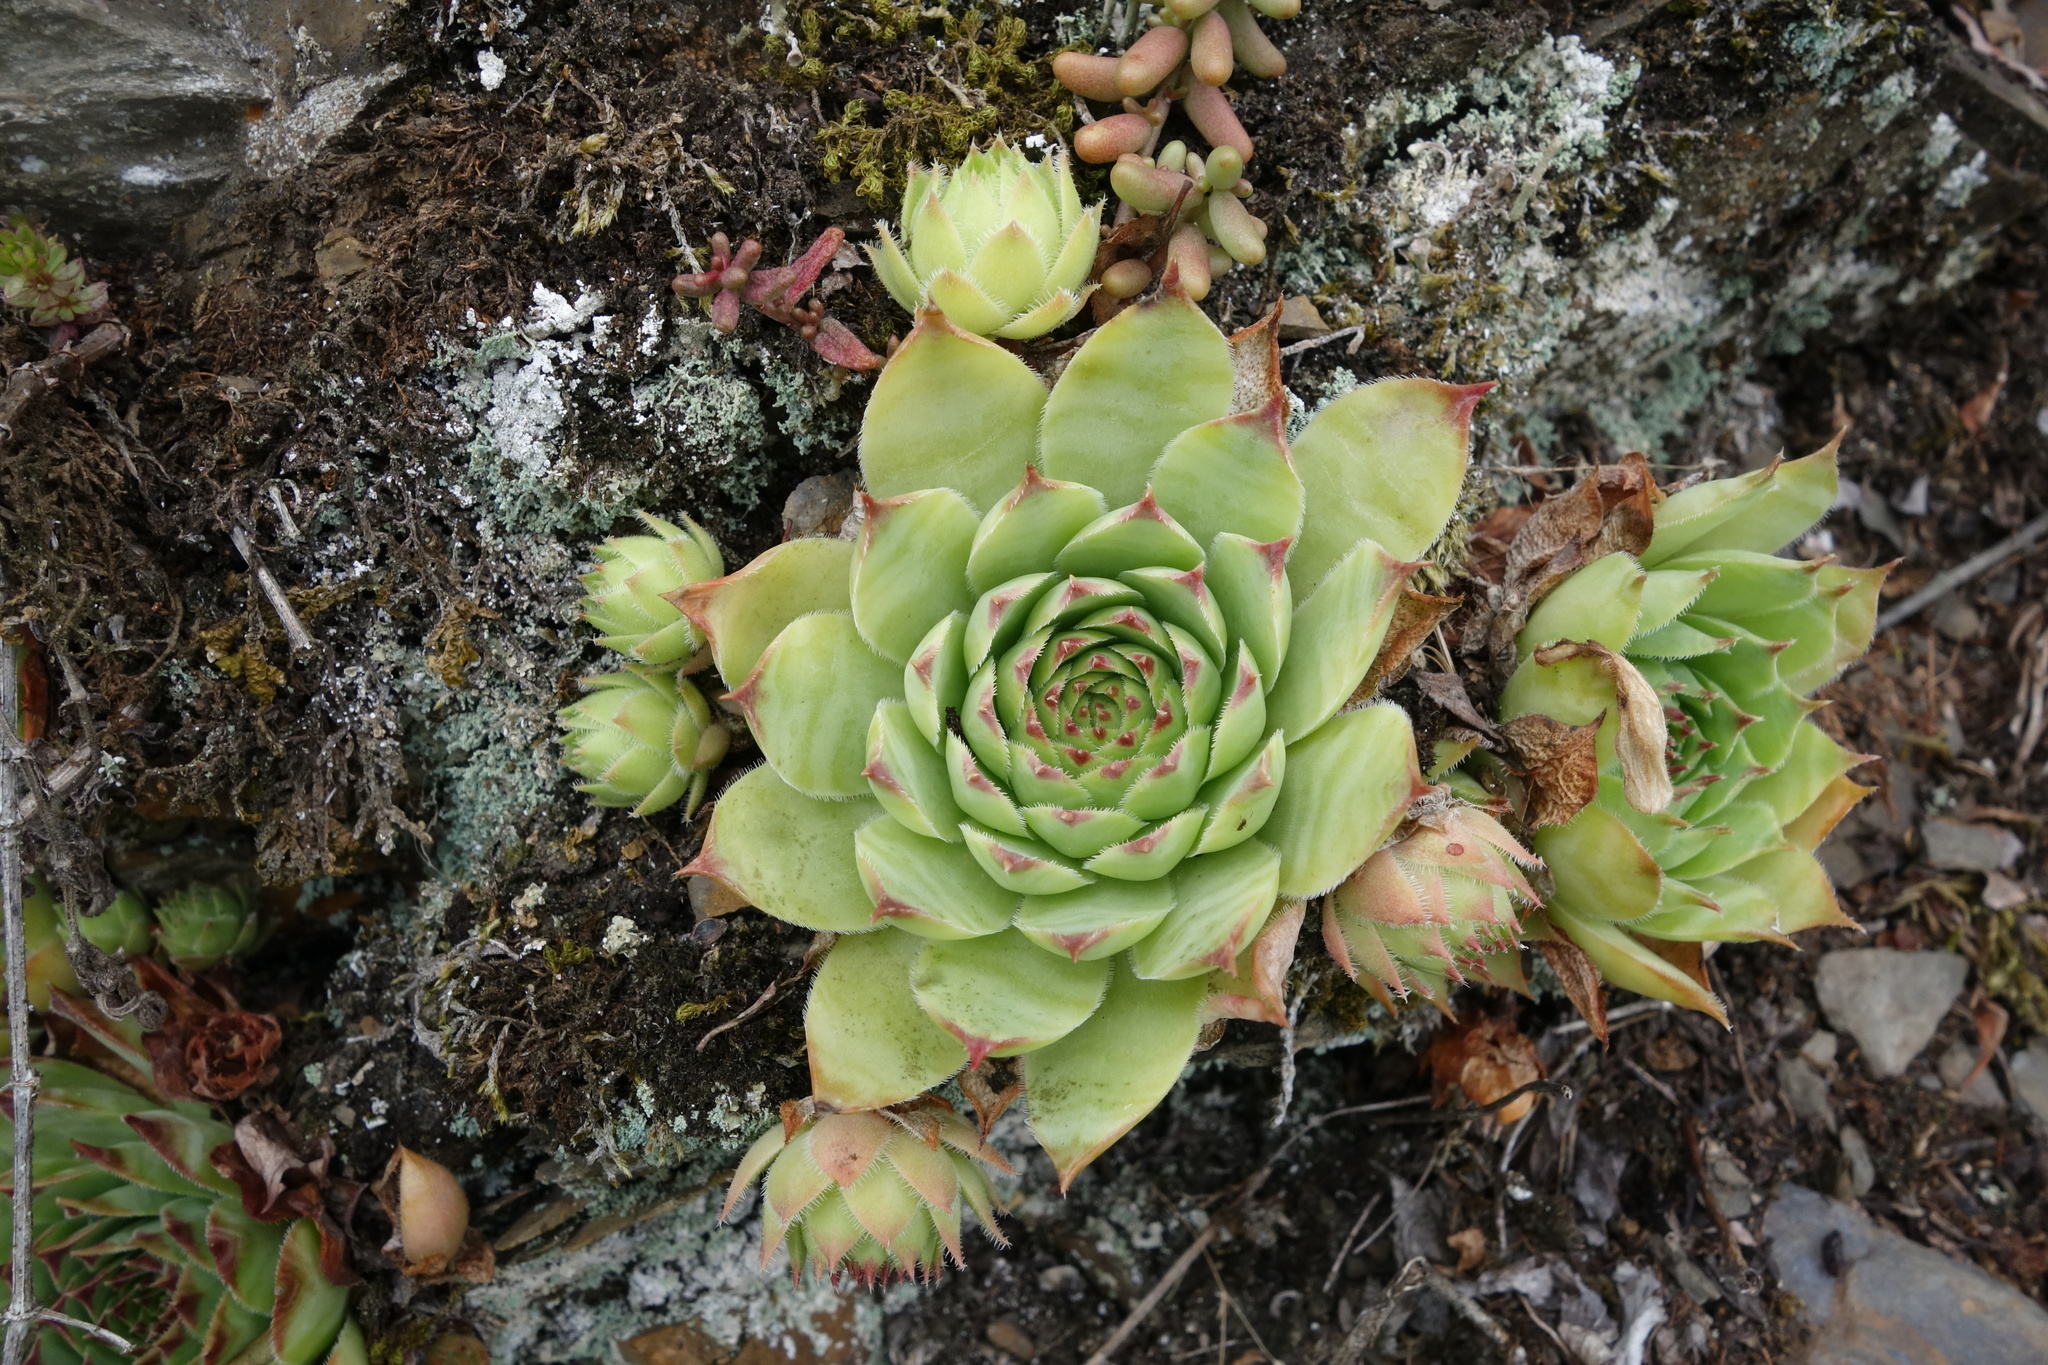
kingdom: Plantae
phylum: Tracheophyta
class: Magnoliopsida
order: Saxifragales
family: Crassulaceae
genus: Sempervivum
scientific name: Sempervivum tectorum
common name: House-leek
